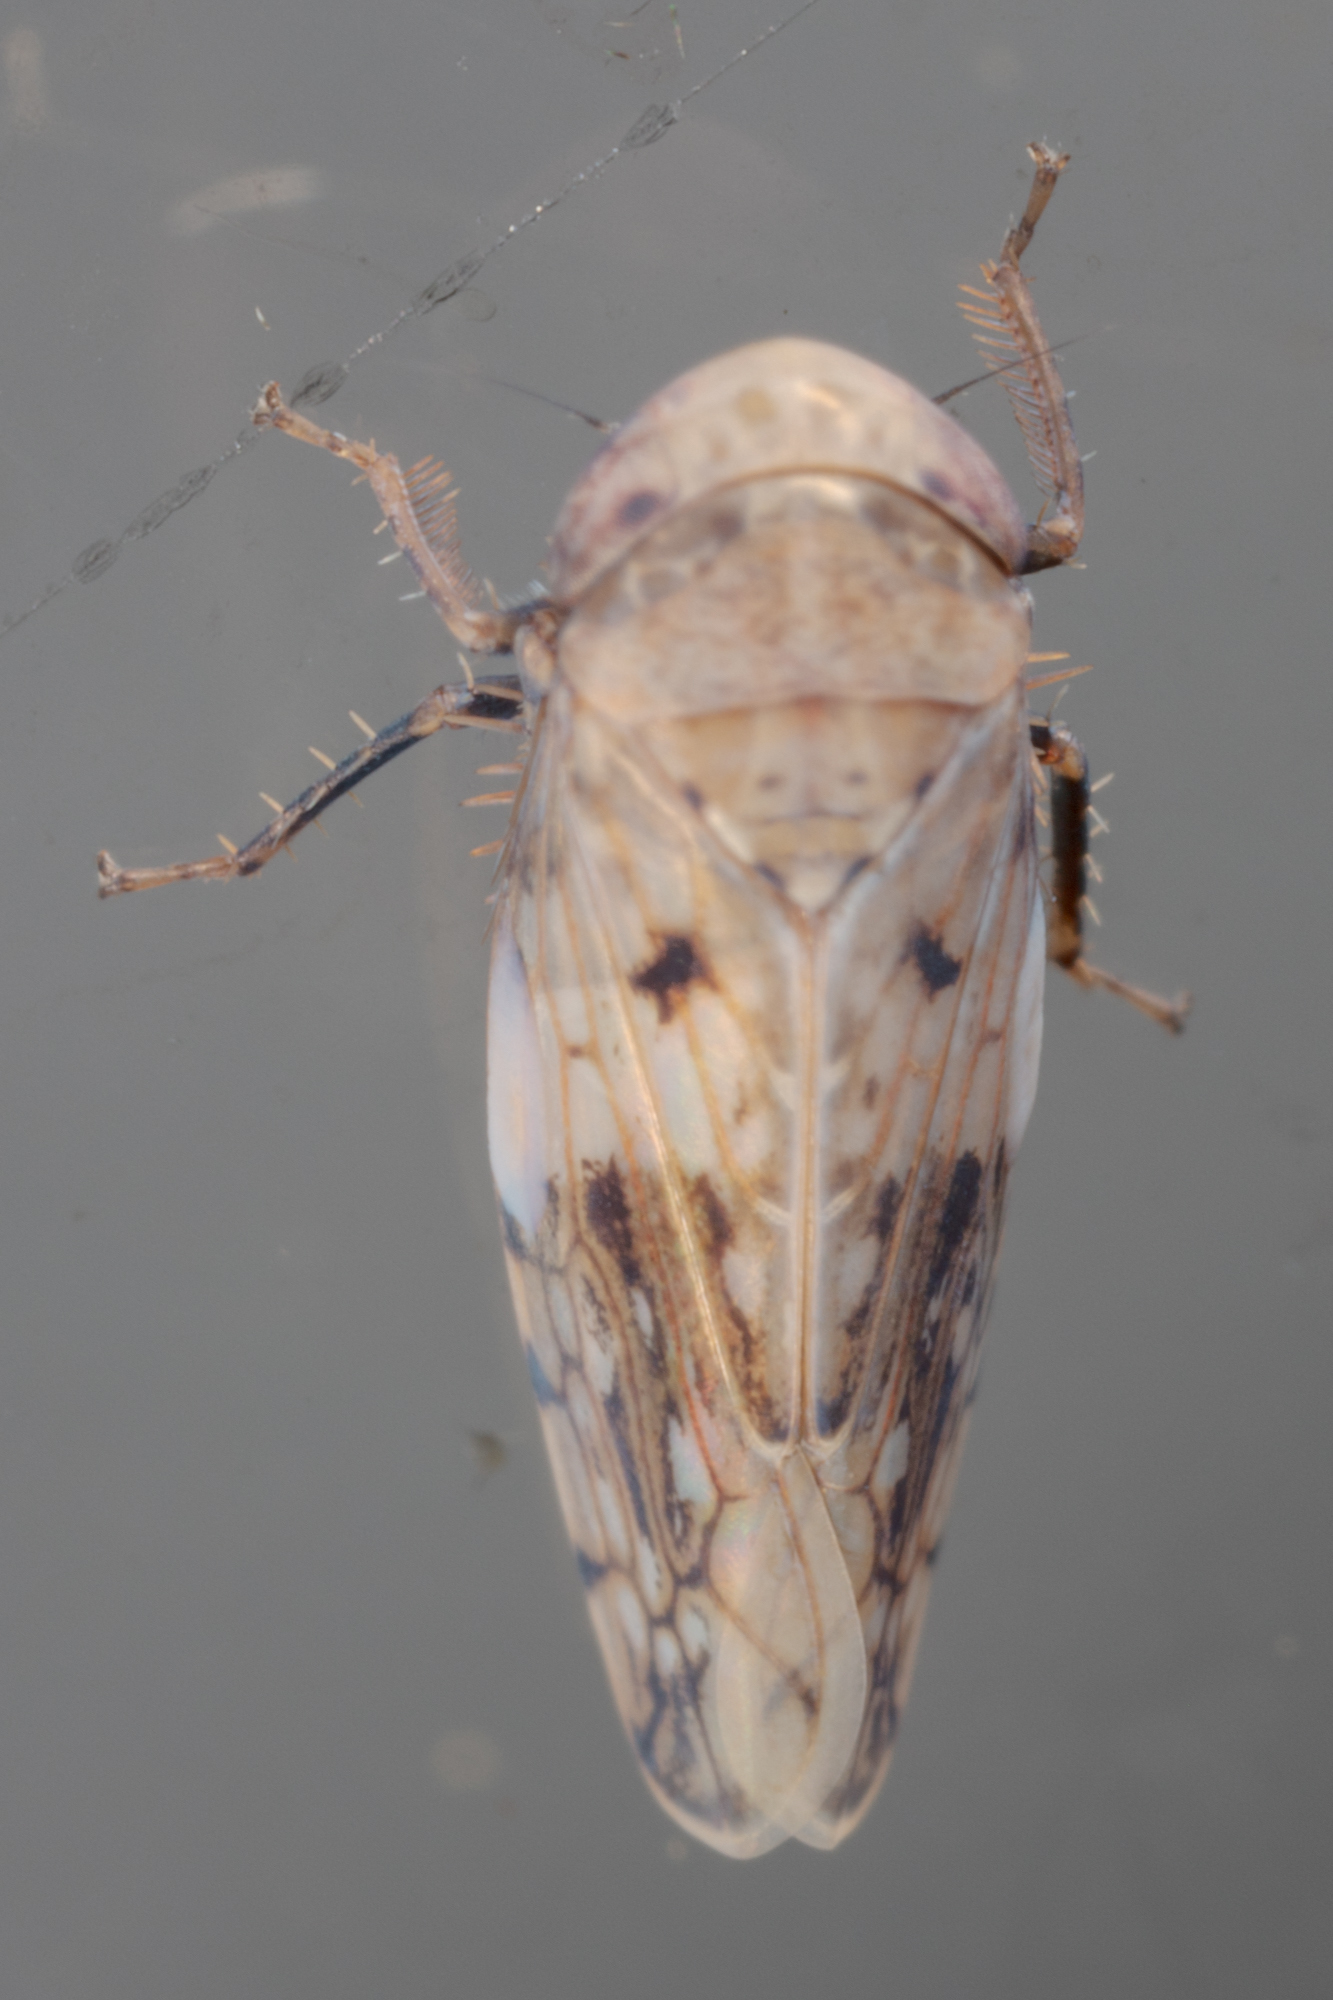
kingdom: Animalia
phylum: Arthropoda
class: Insecta
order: Hemiptera
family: Cicadellidae
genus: Menosoma
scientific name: Menosoma cinctum
